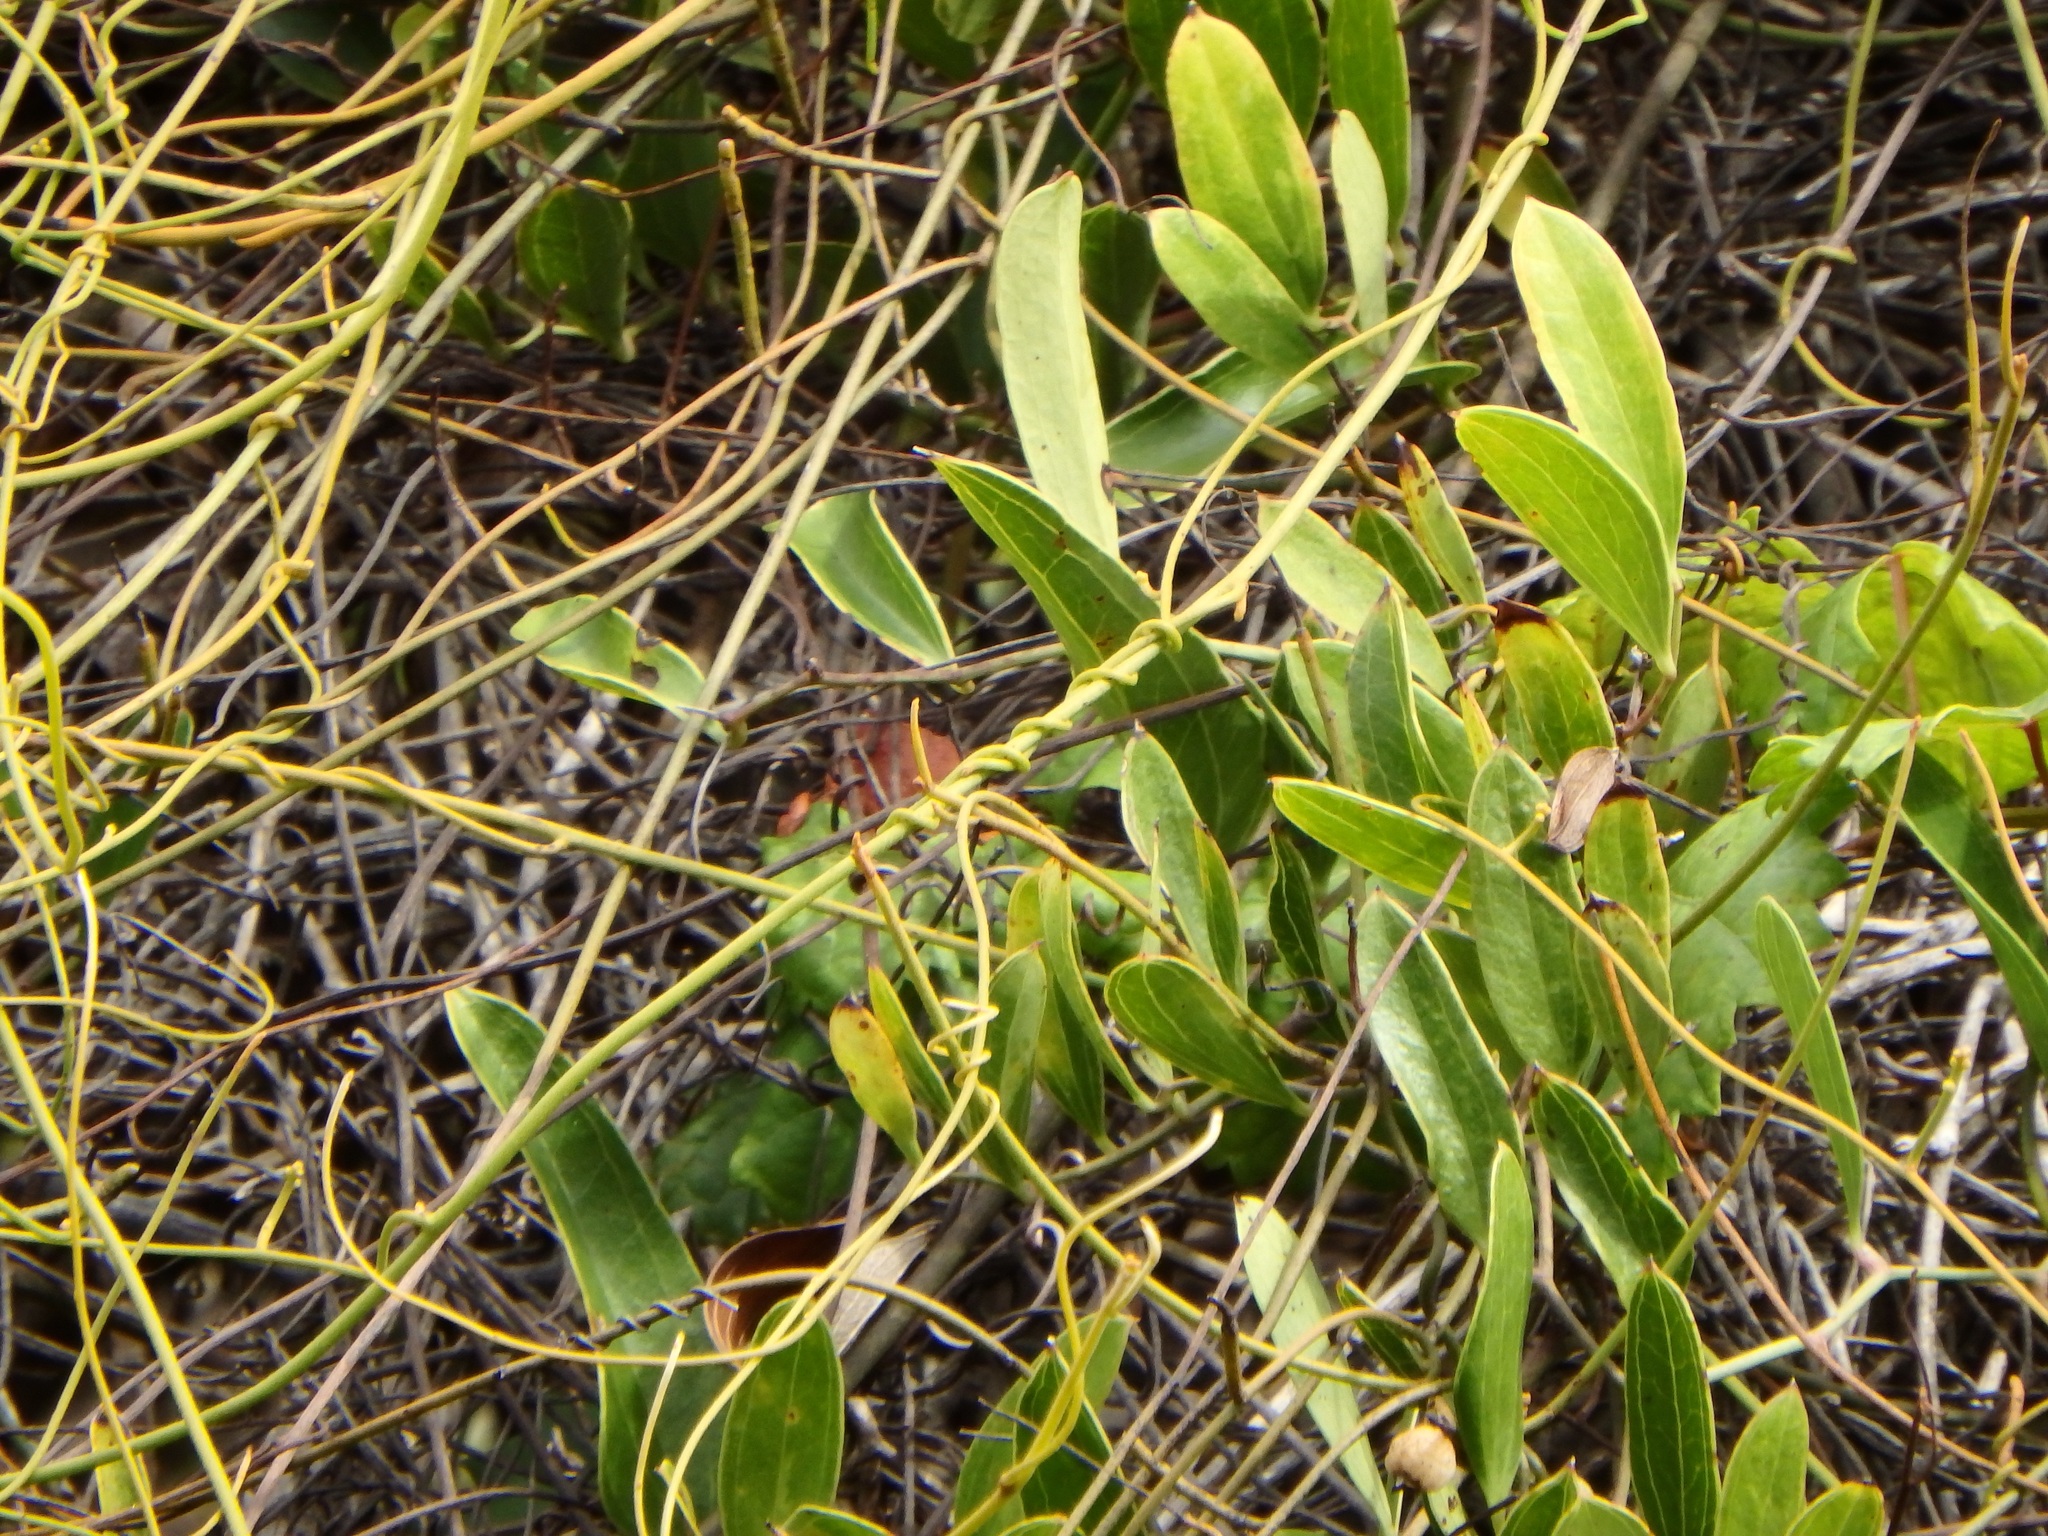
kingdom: Plantae
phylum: Tracheophyta
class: Liliopsida
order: Liliales
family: Smilacaceae
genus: Smilax
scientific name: Smilax auriculata
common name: Wild bamboo
